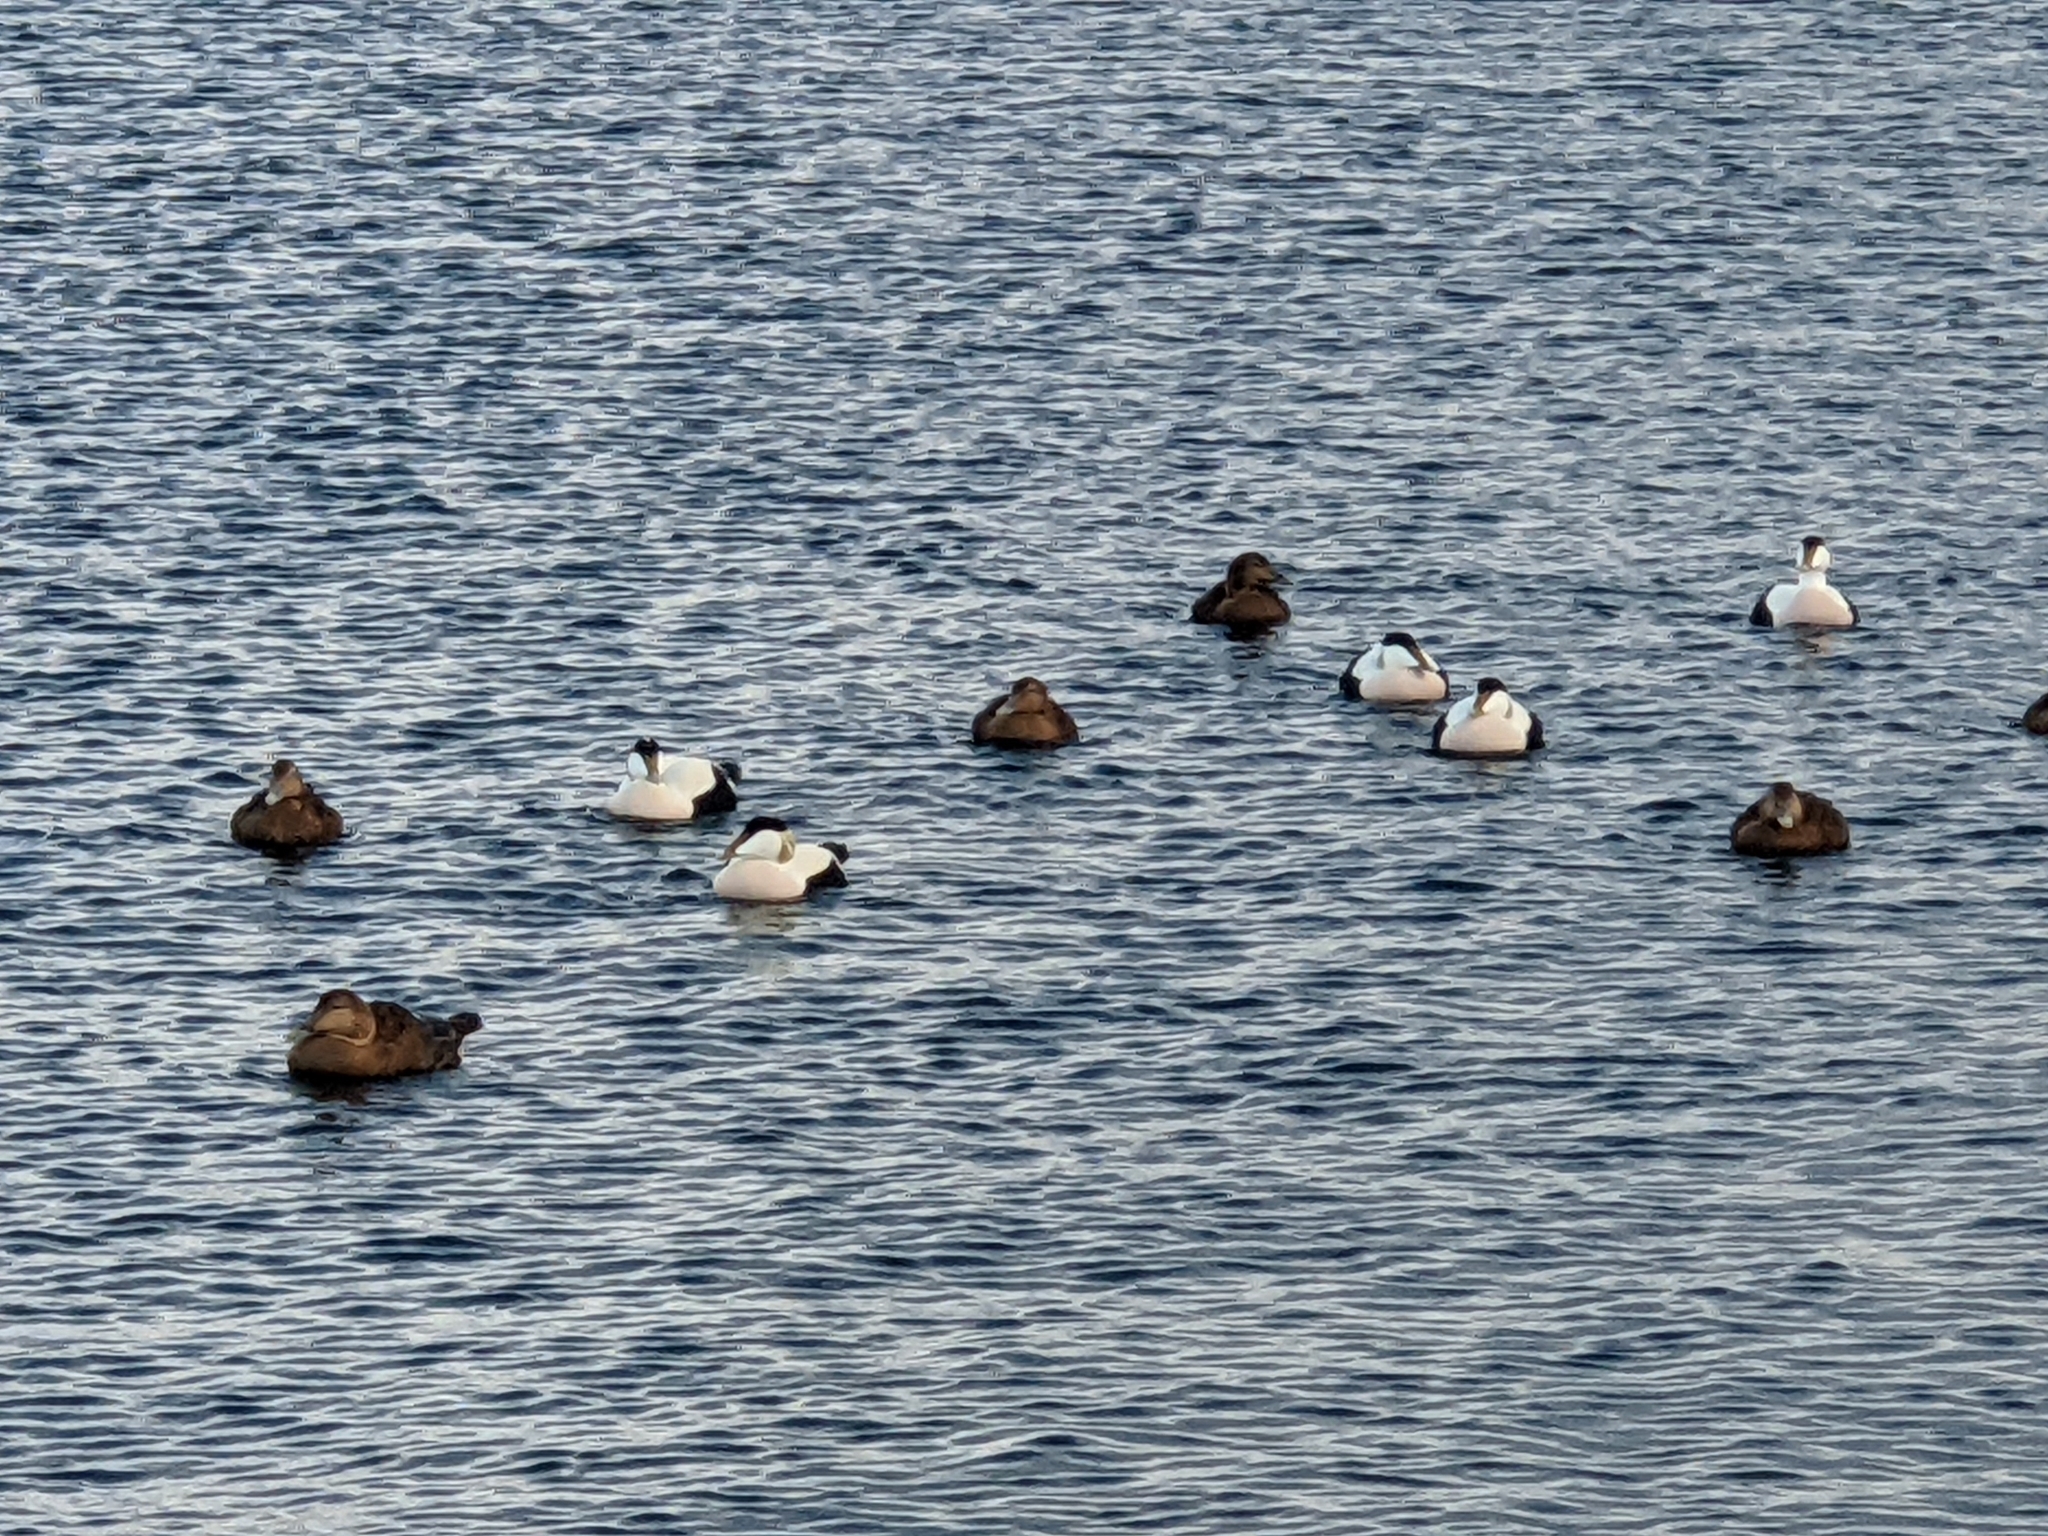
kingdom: Animalia
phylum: Chordata
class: Aves
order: Anseriformes
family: Anatidae
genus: Somateria
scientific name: Somateria mollissima
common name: Common eider
